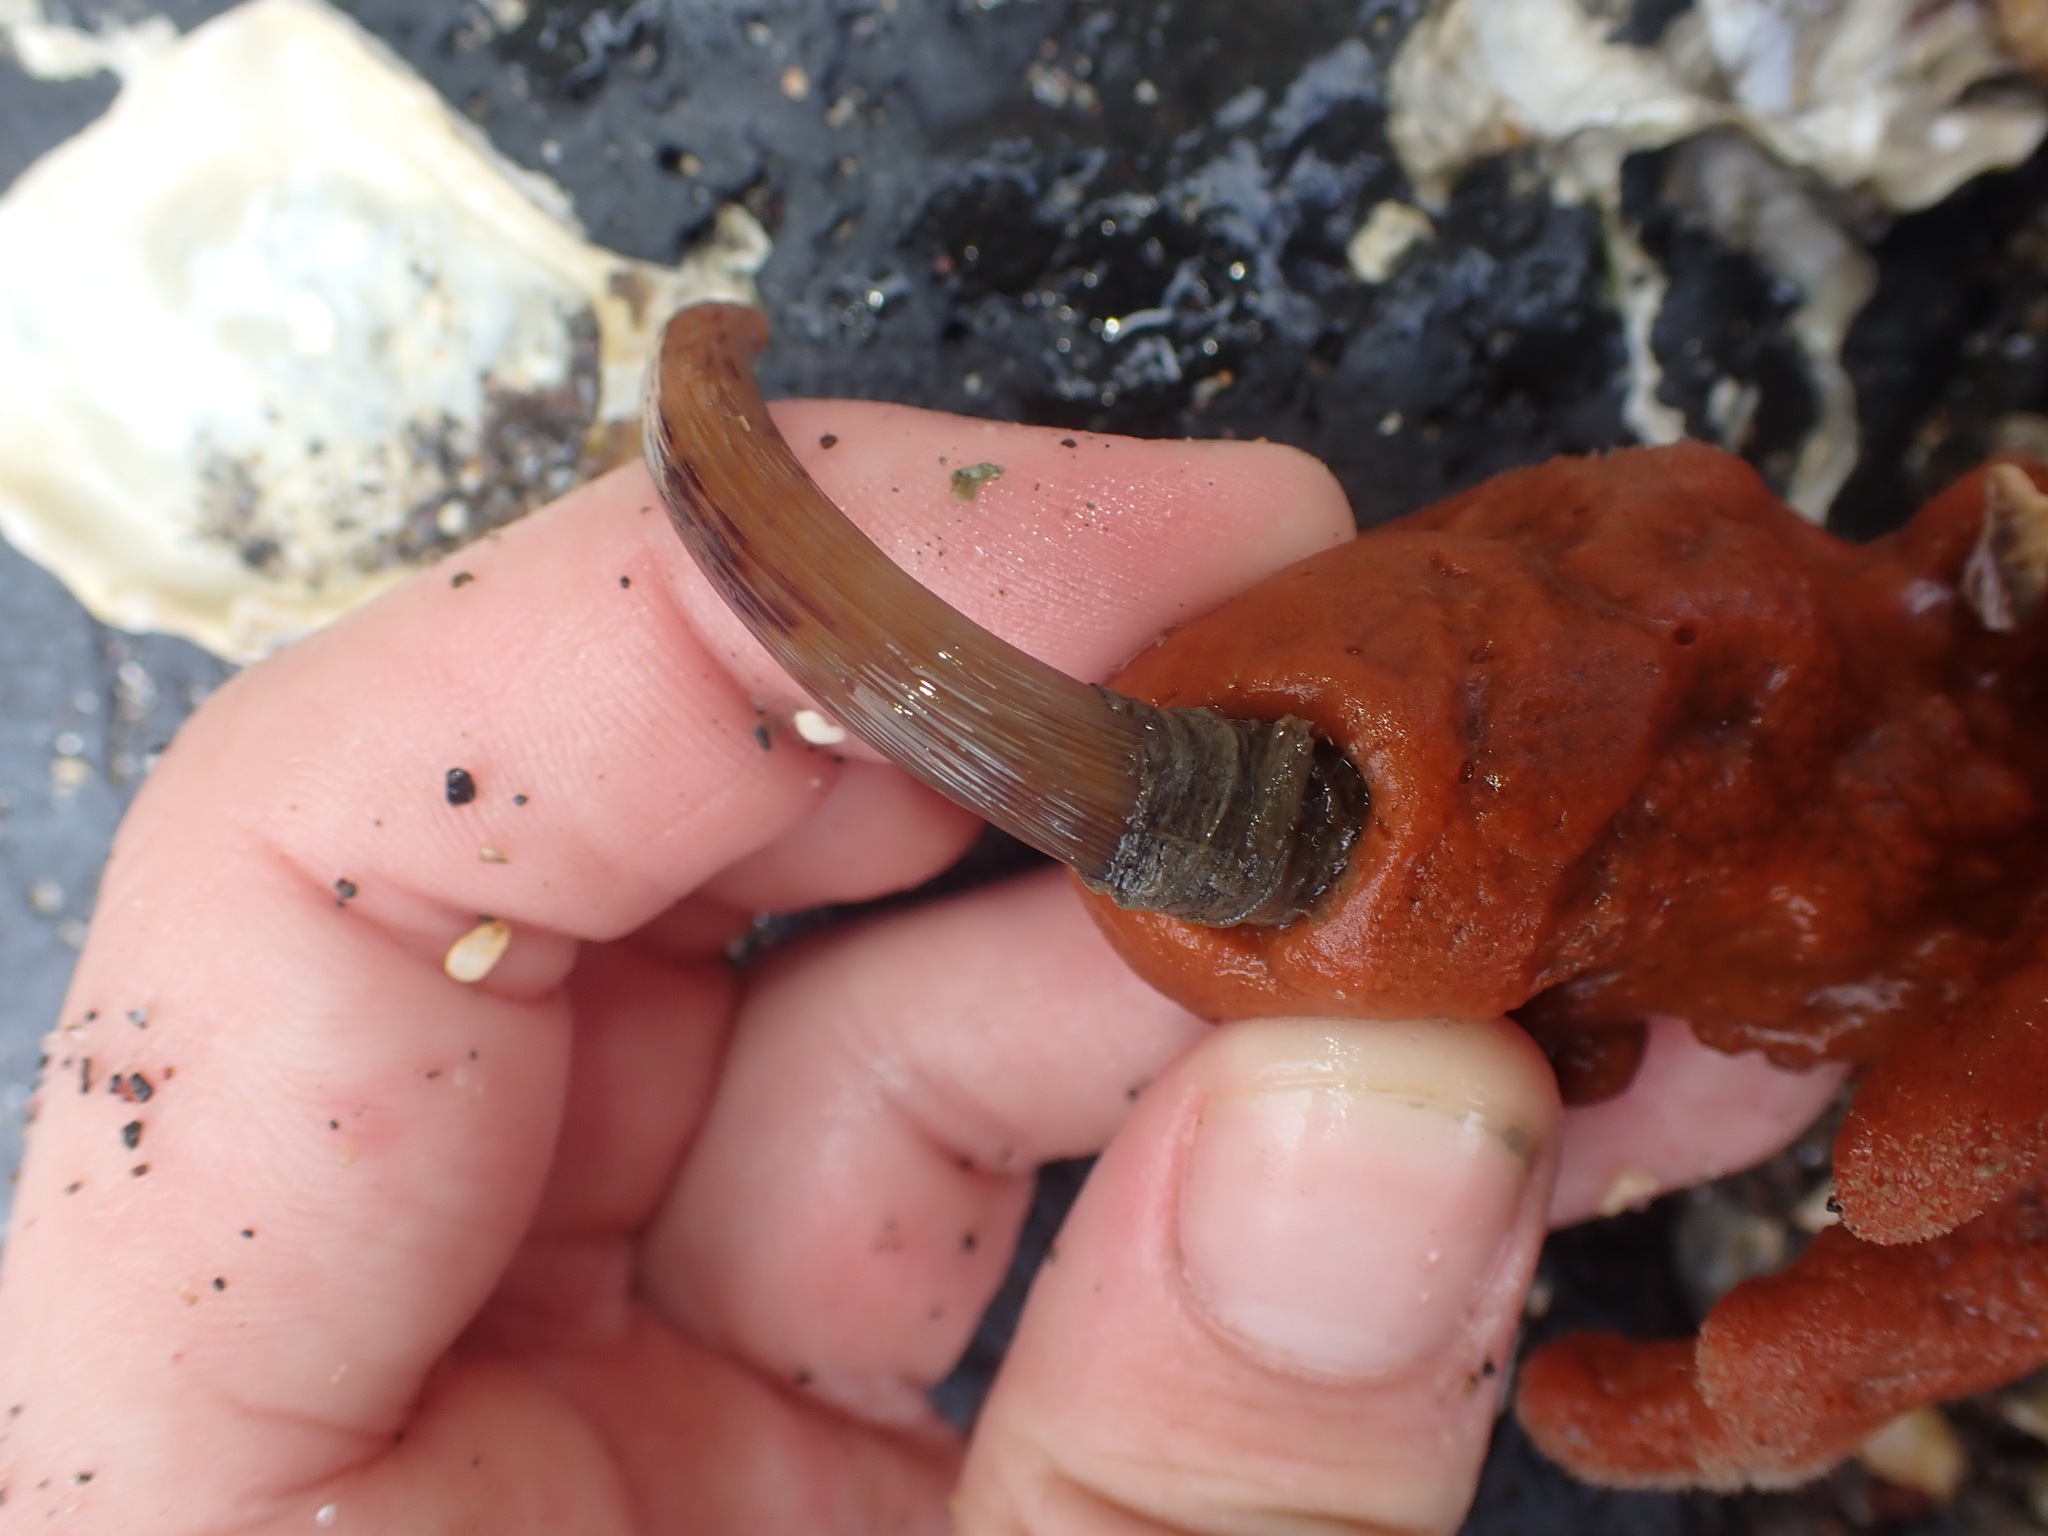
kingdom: Animalia
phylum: Annelida
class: Polychaeta
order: Sabellida
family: Sabellidae
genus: Sabella
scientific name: Sabella spallanzanii
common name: Feather duster worm
